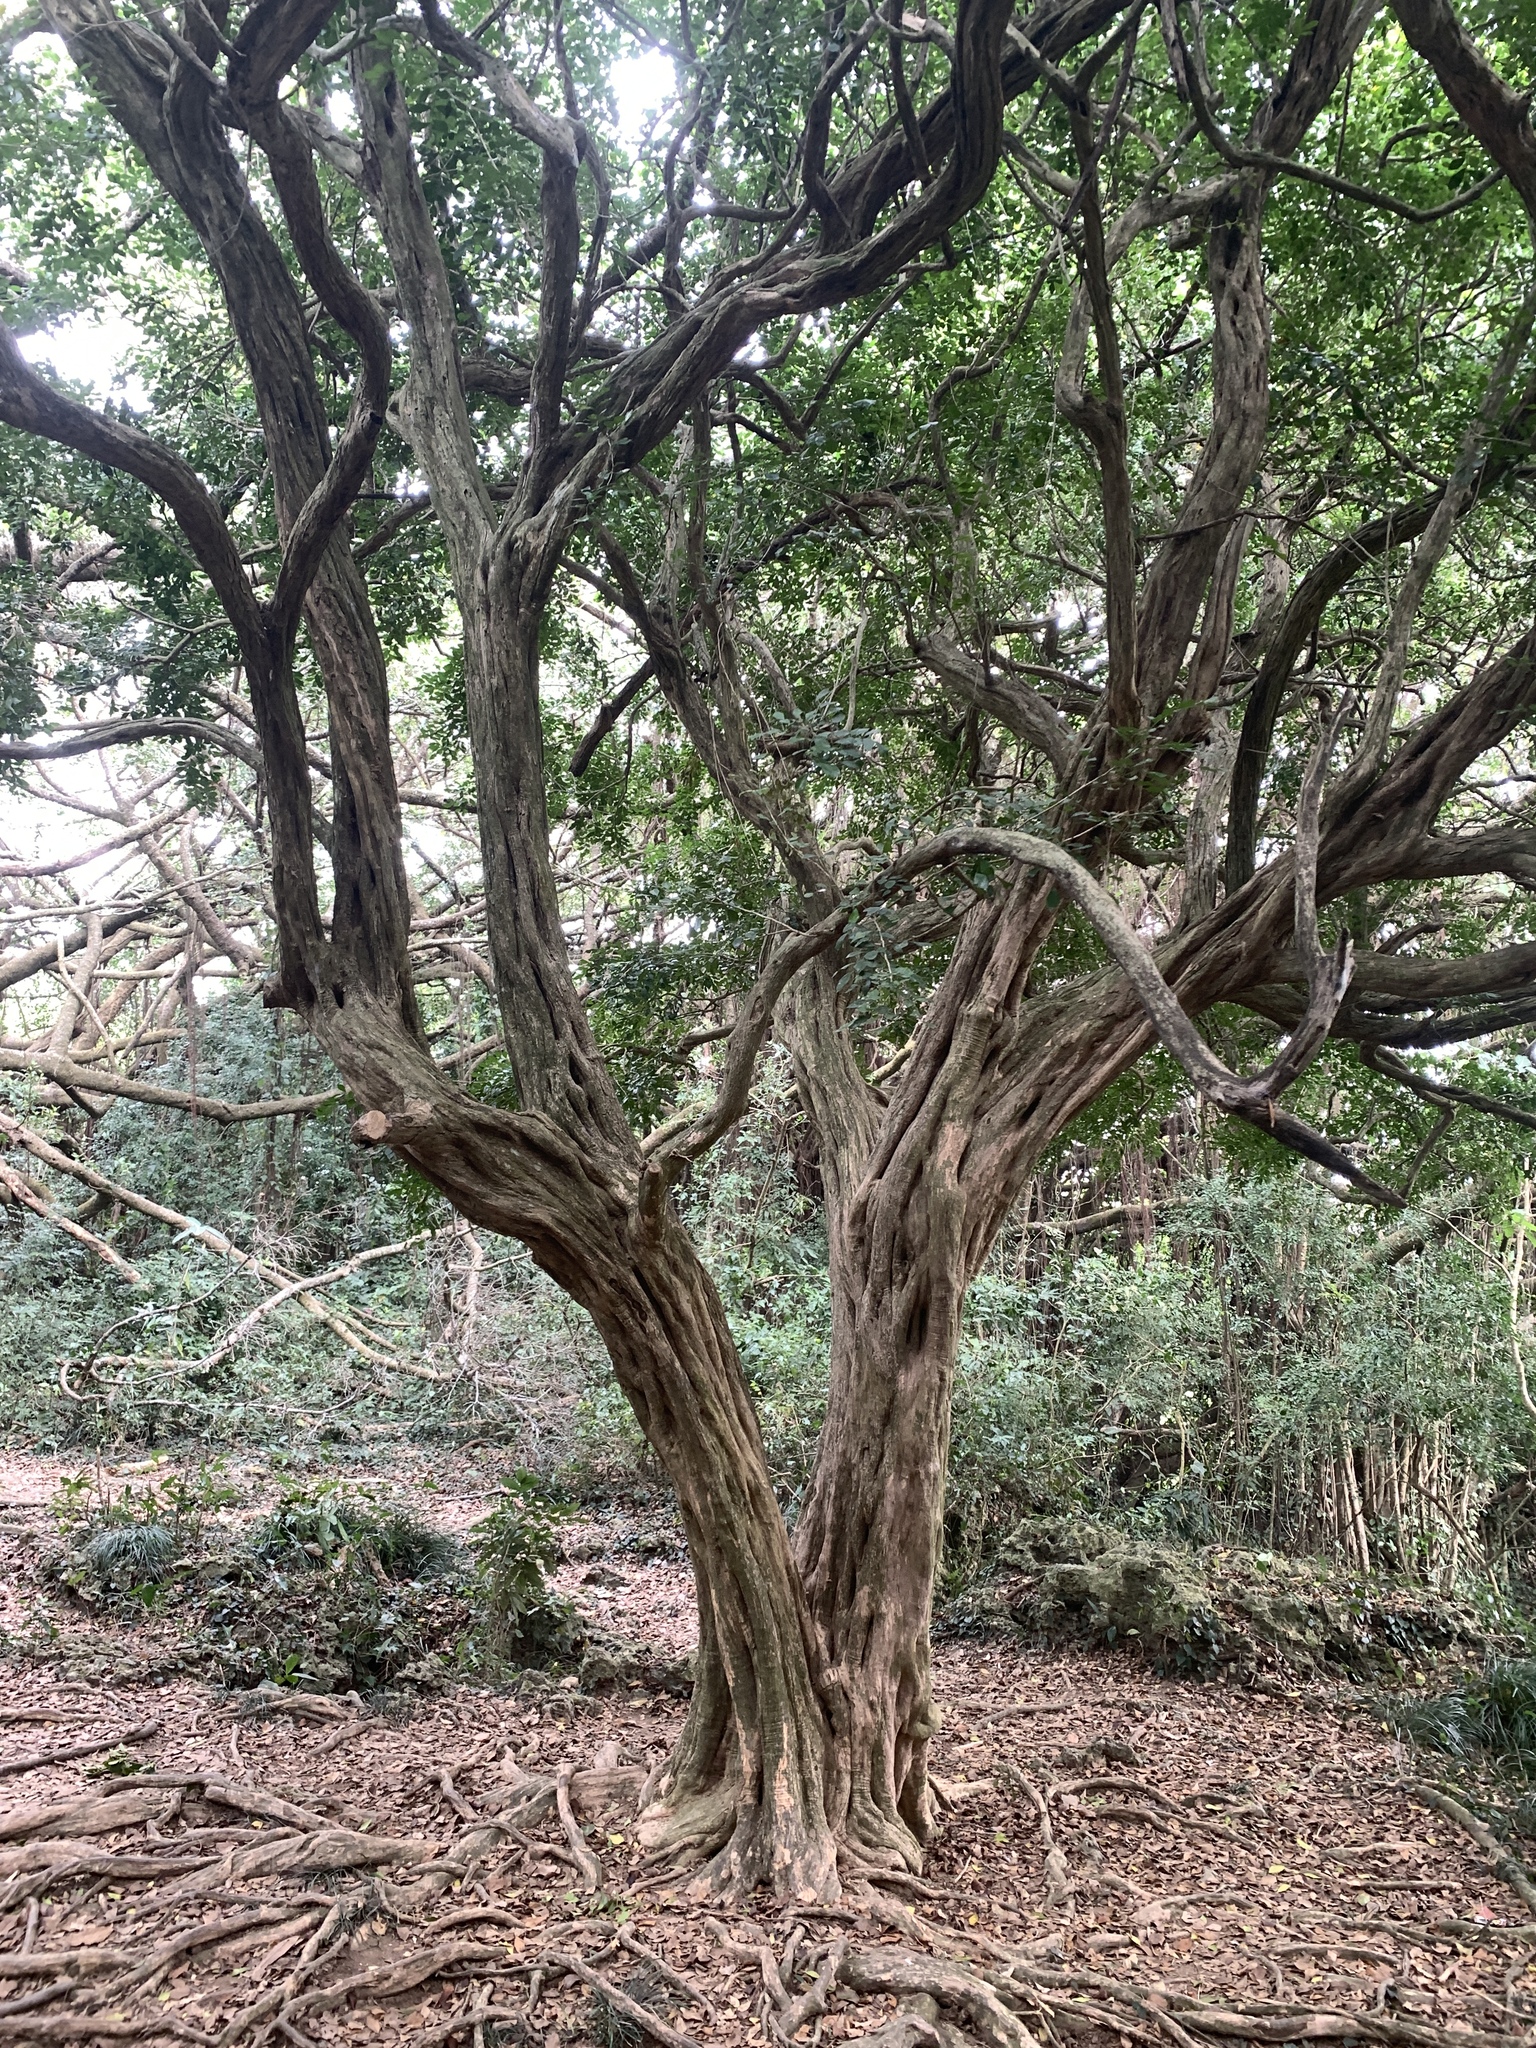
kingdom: Plantae
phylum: Tracheophyta
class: Magnoliopsida
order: Sapindales
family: Rutaceae
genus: Murraya
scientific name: Murraya paniculata
